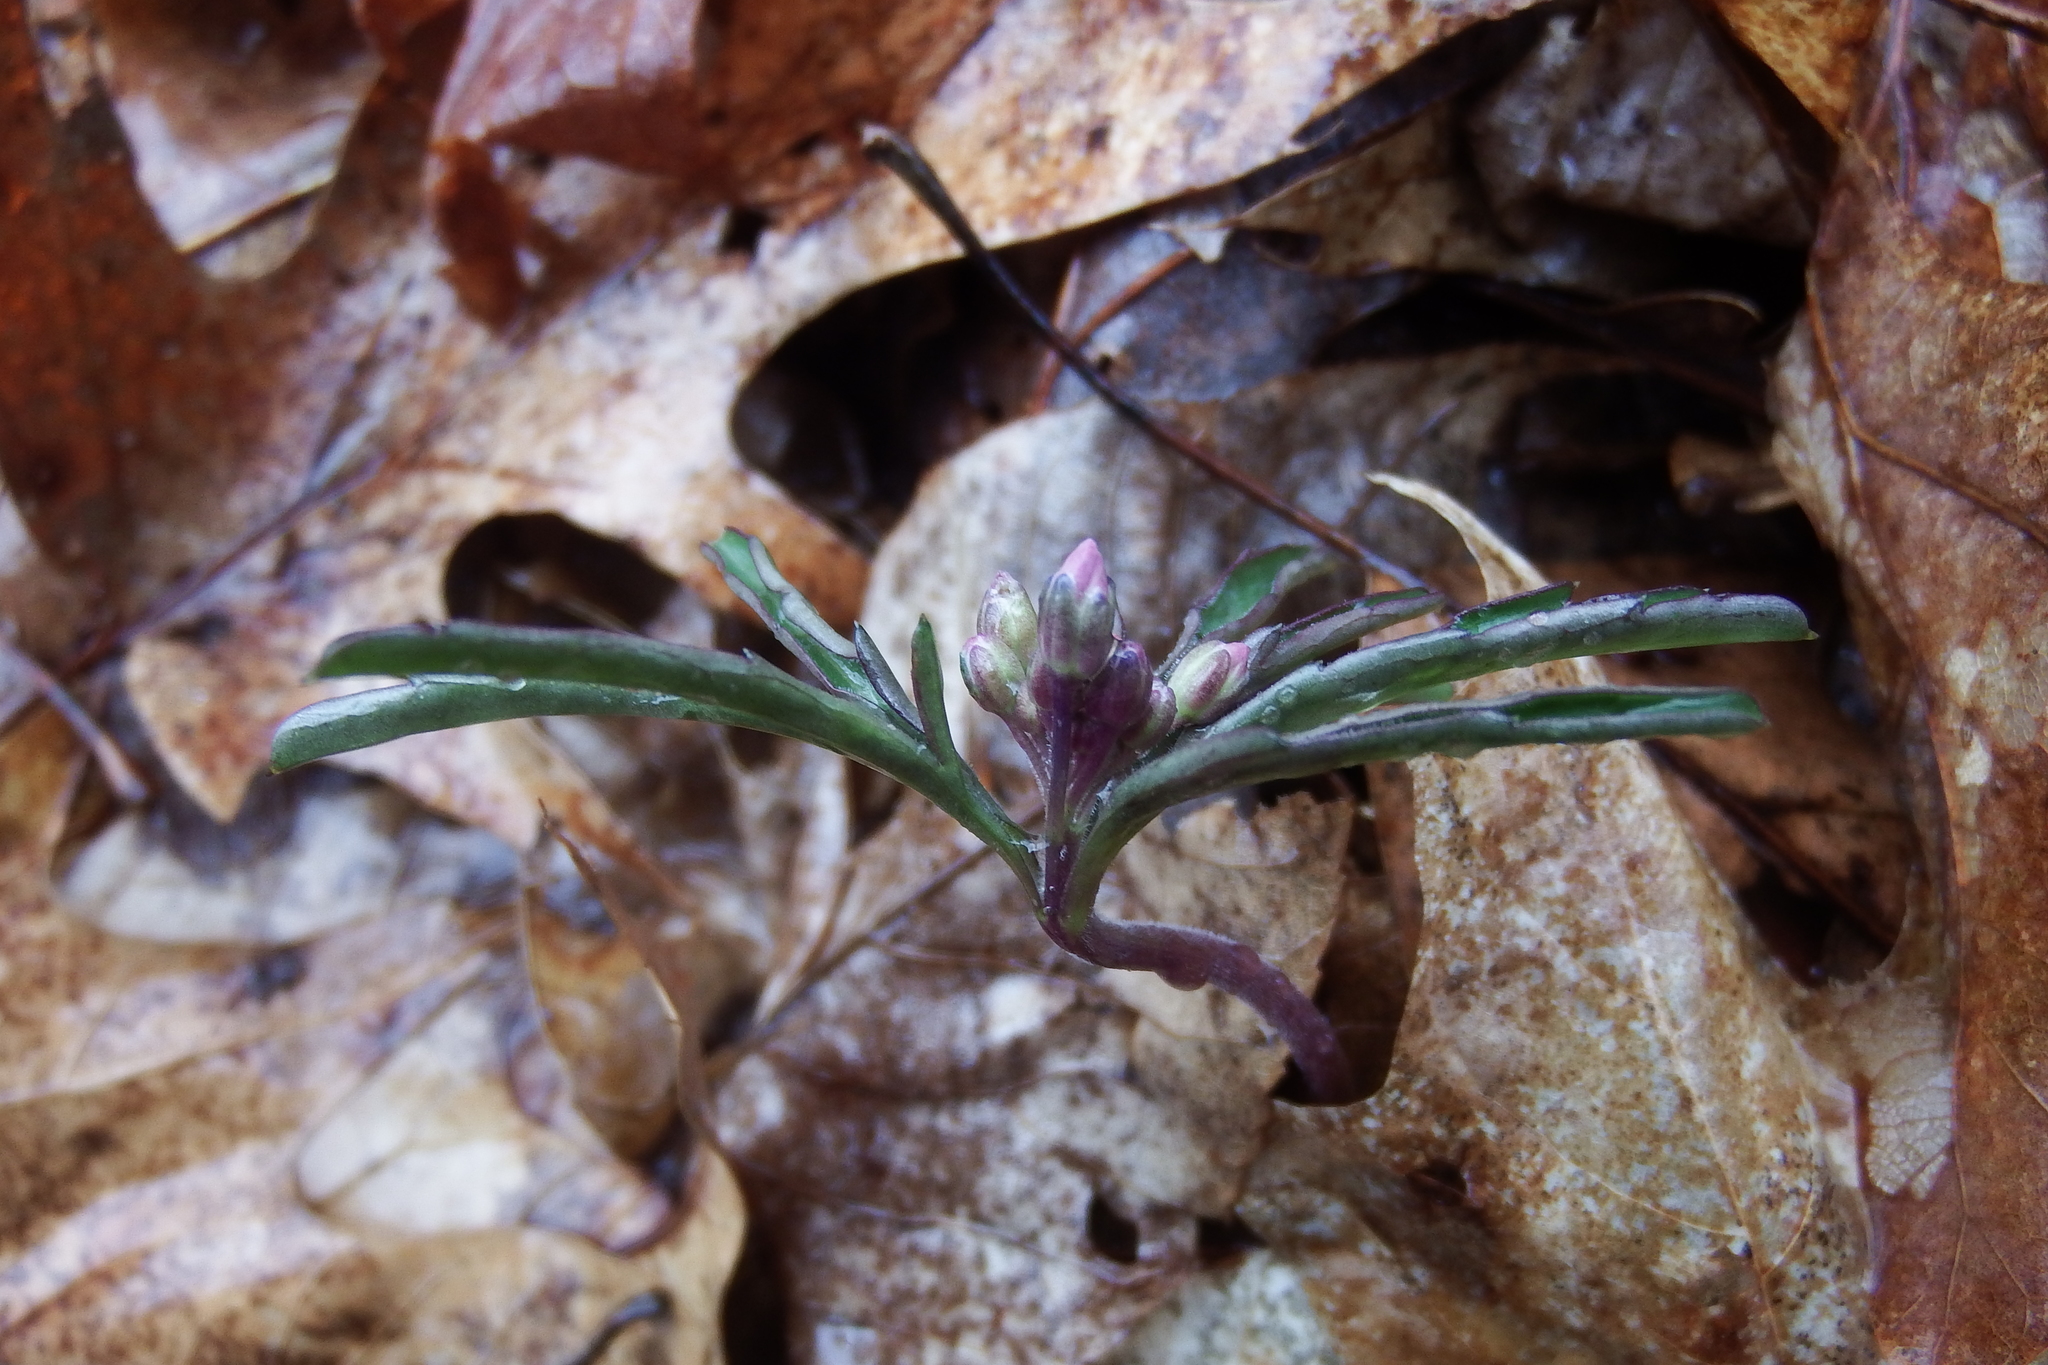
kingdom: Plantae
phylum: Tracheophyta
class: Magnoliopsida
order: Brassicales
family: Brassicaceae
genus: Cardamine
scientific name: Cardamine concatenata
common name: Cut-leaf toothcup
